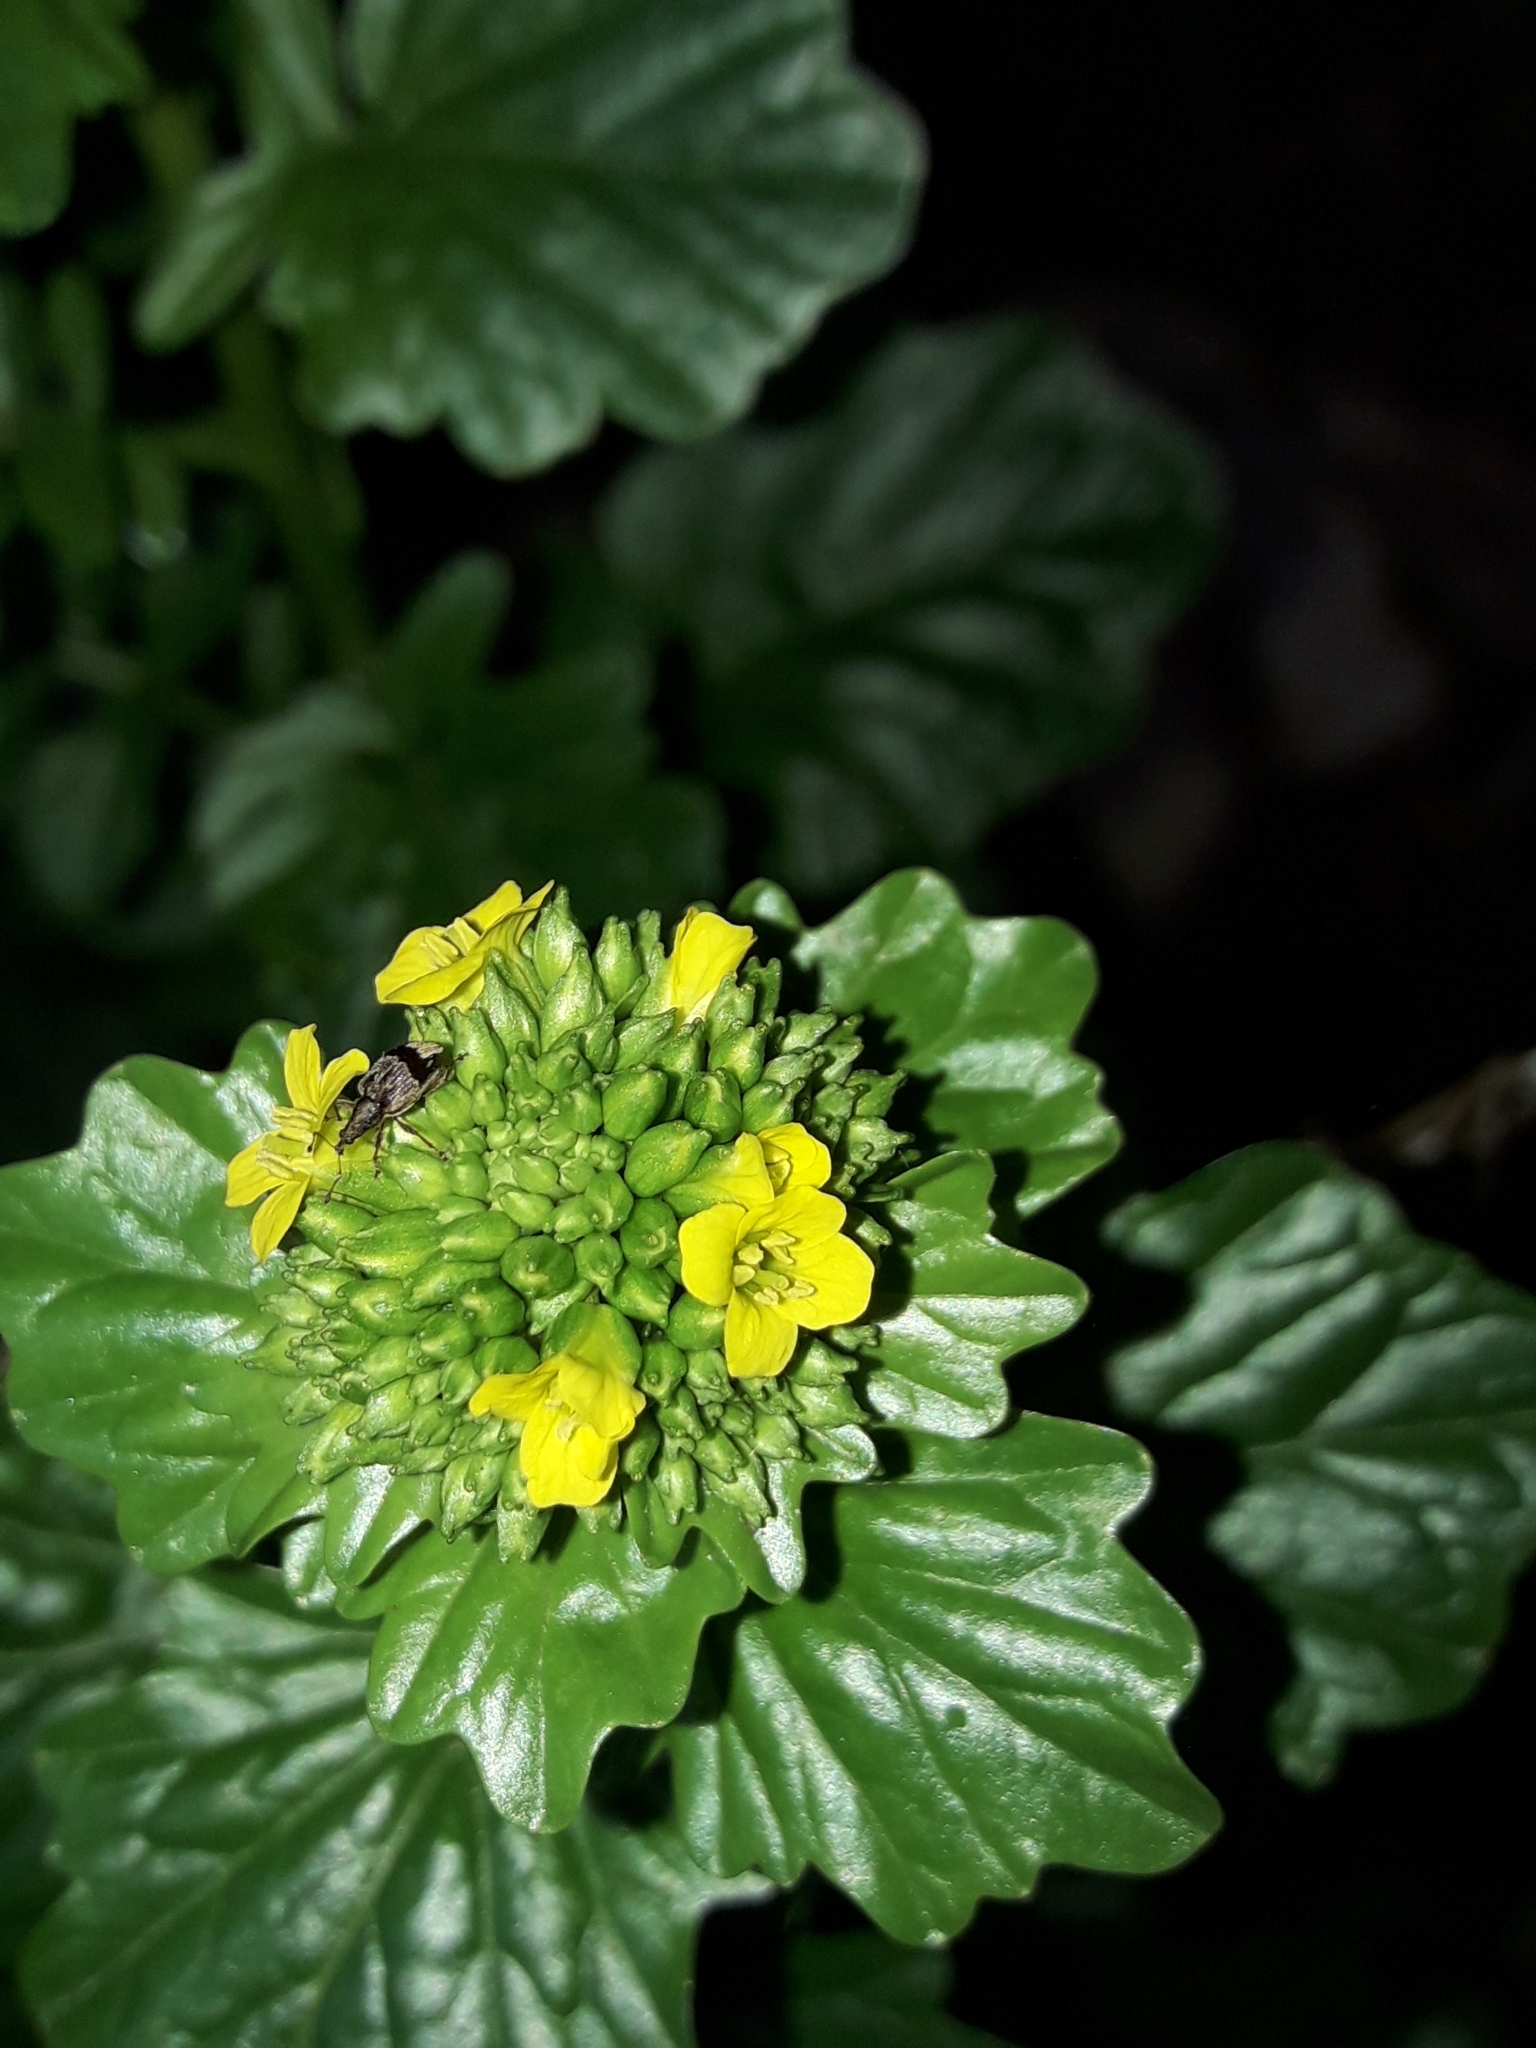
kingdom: Plantae
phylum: Tracheophyta
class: Magnoliopsida
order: Brassicales
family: Brassicaceae
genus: Barbarea
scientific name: Barbarea intermedia
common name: Medium-flowered winter-cress
